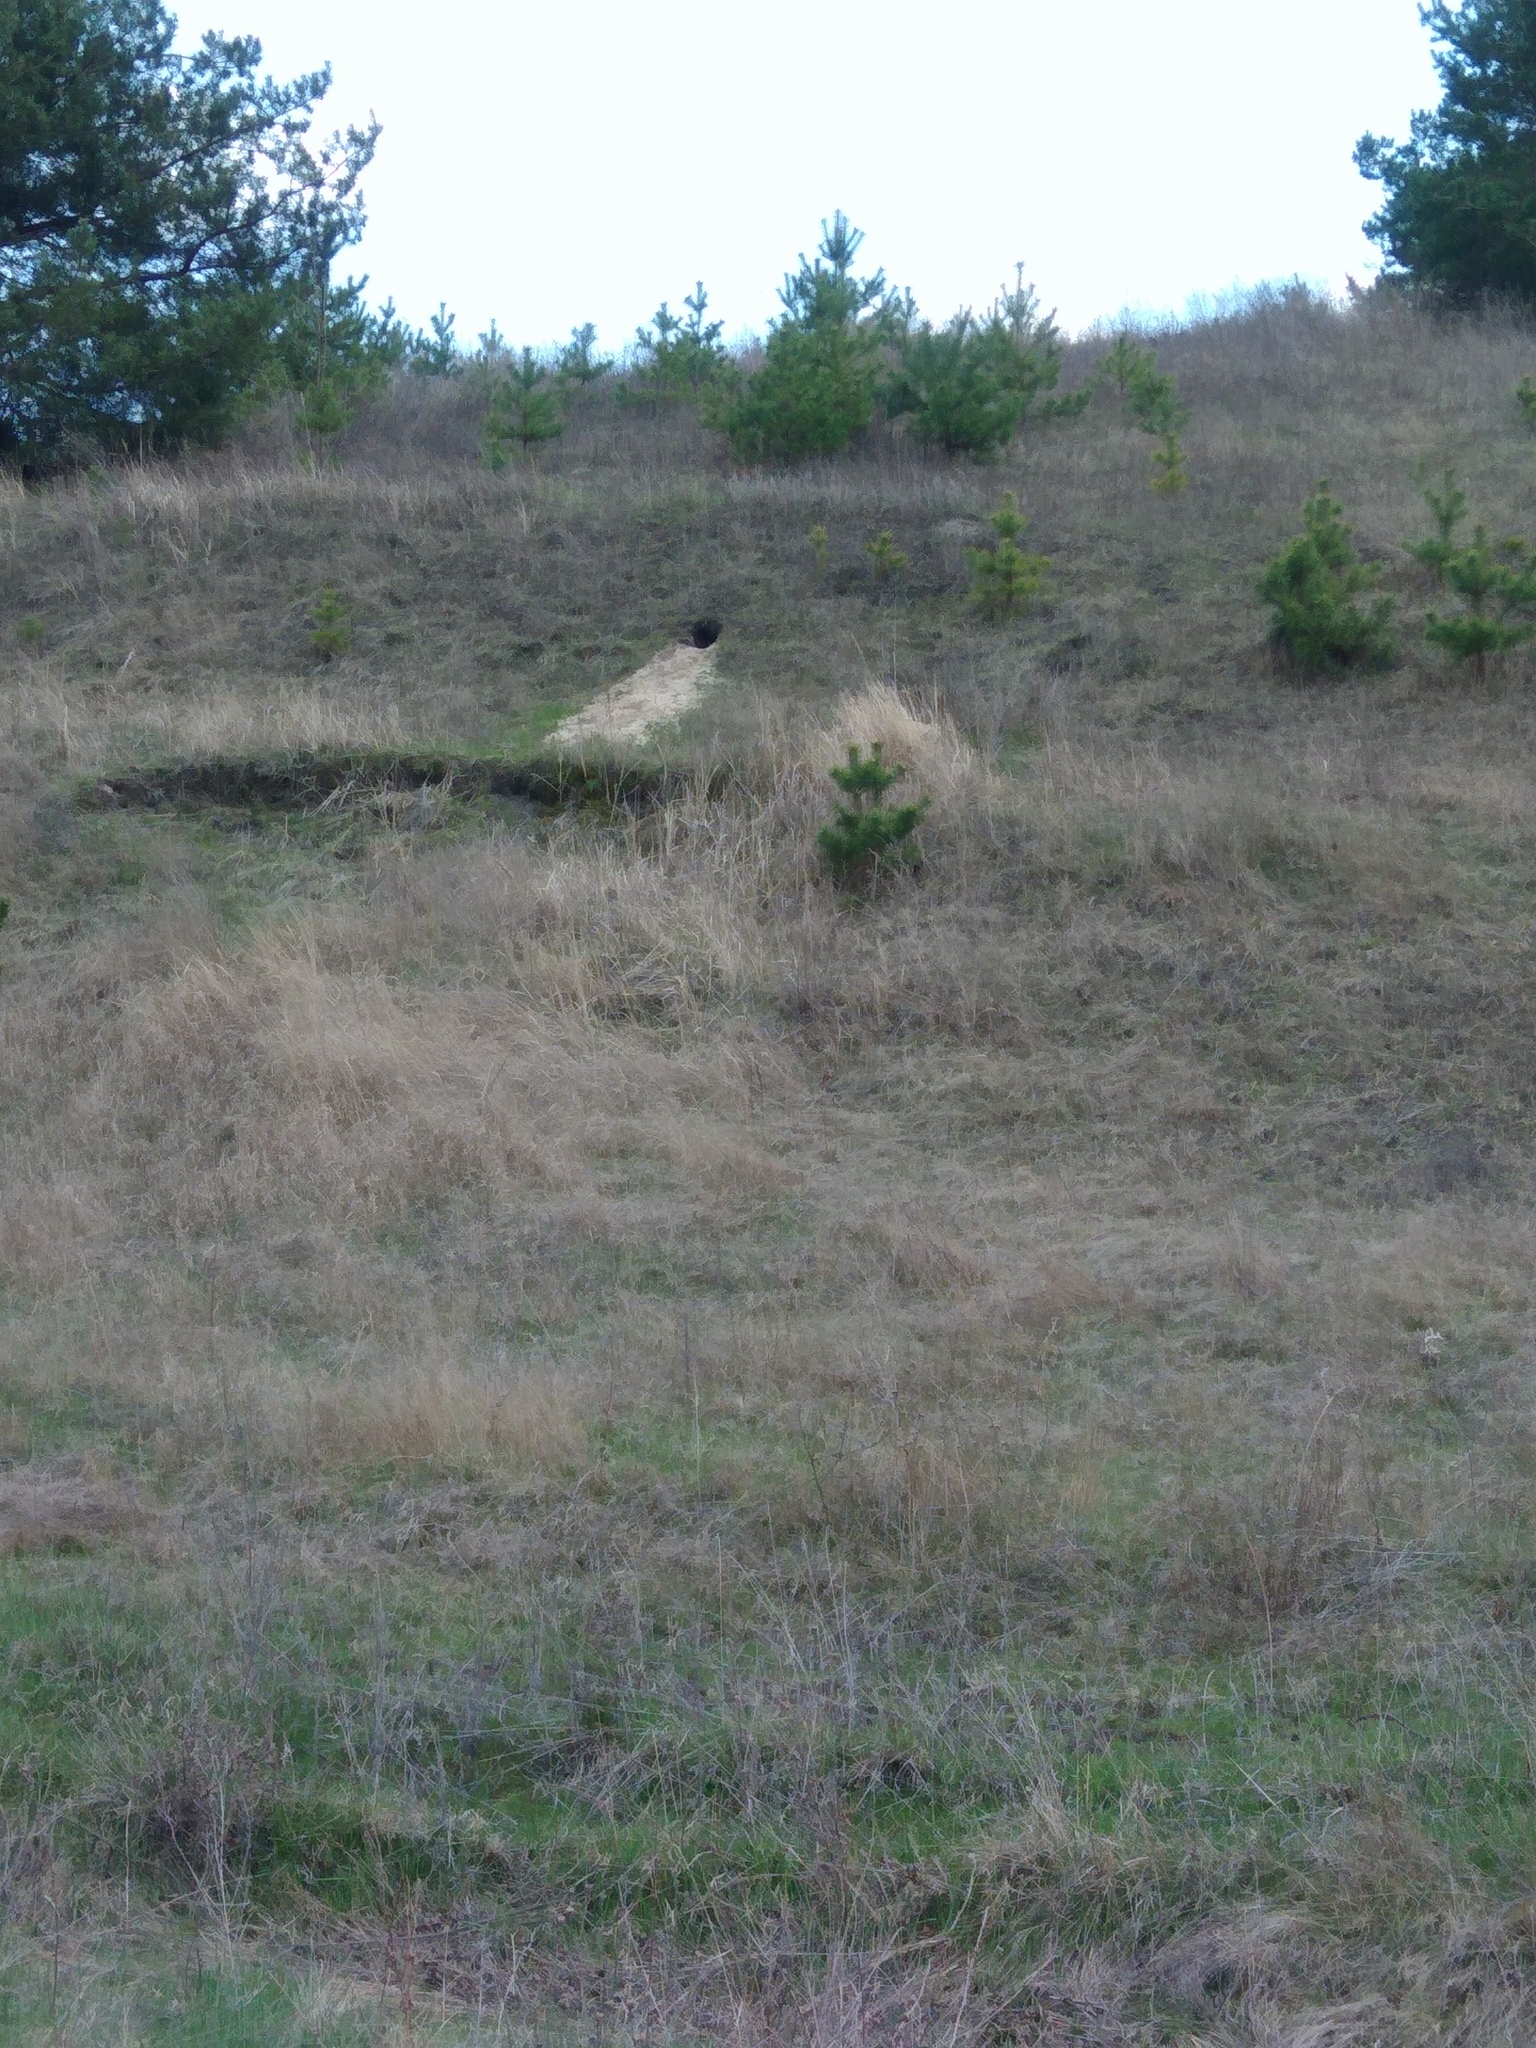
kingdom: Animalia
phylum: Chordata
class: Mammalia
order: Rodentia
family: Sciuridae
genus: Marmota
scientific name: Marmota bobak
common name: Bobak marmot
